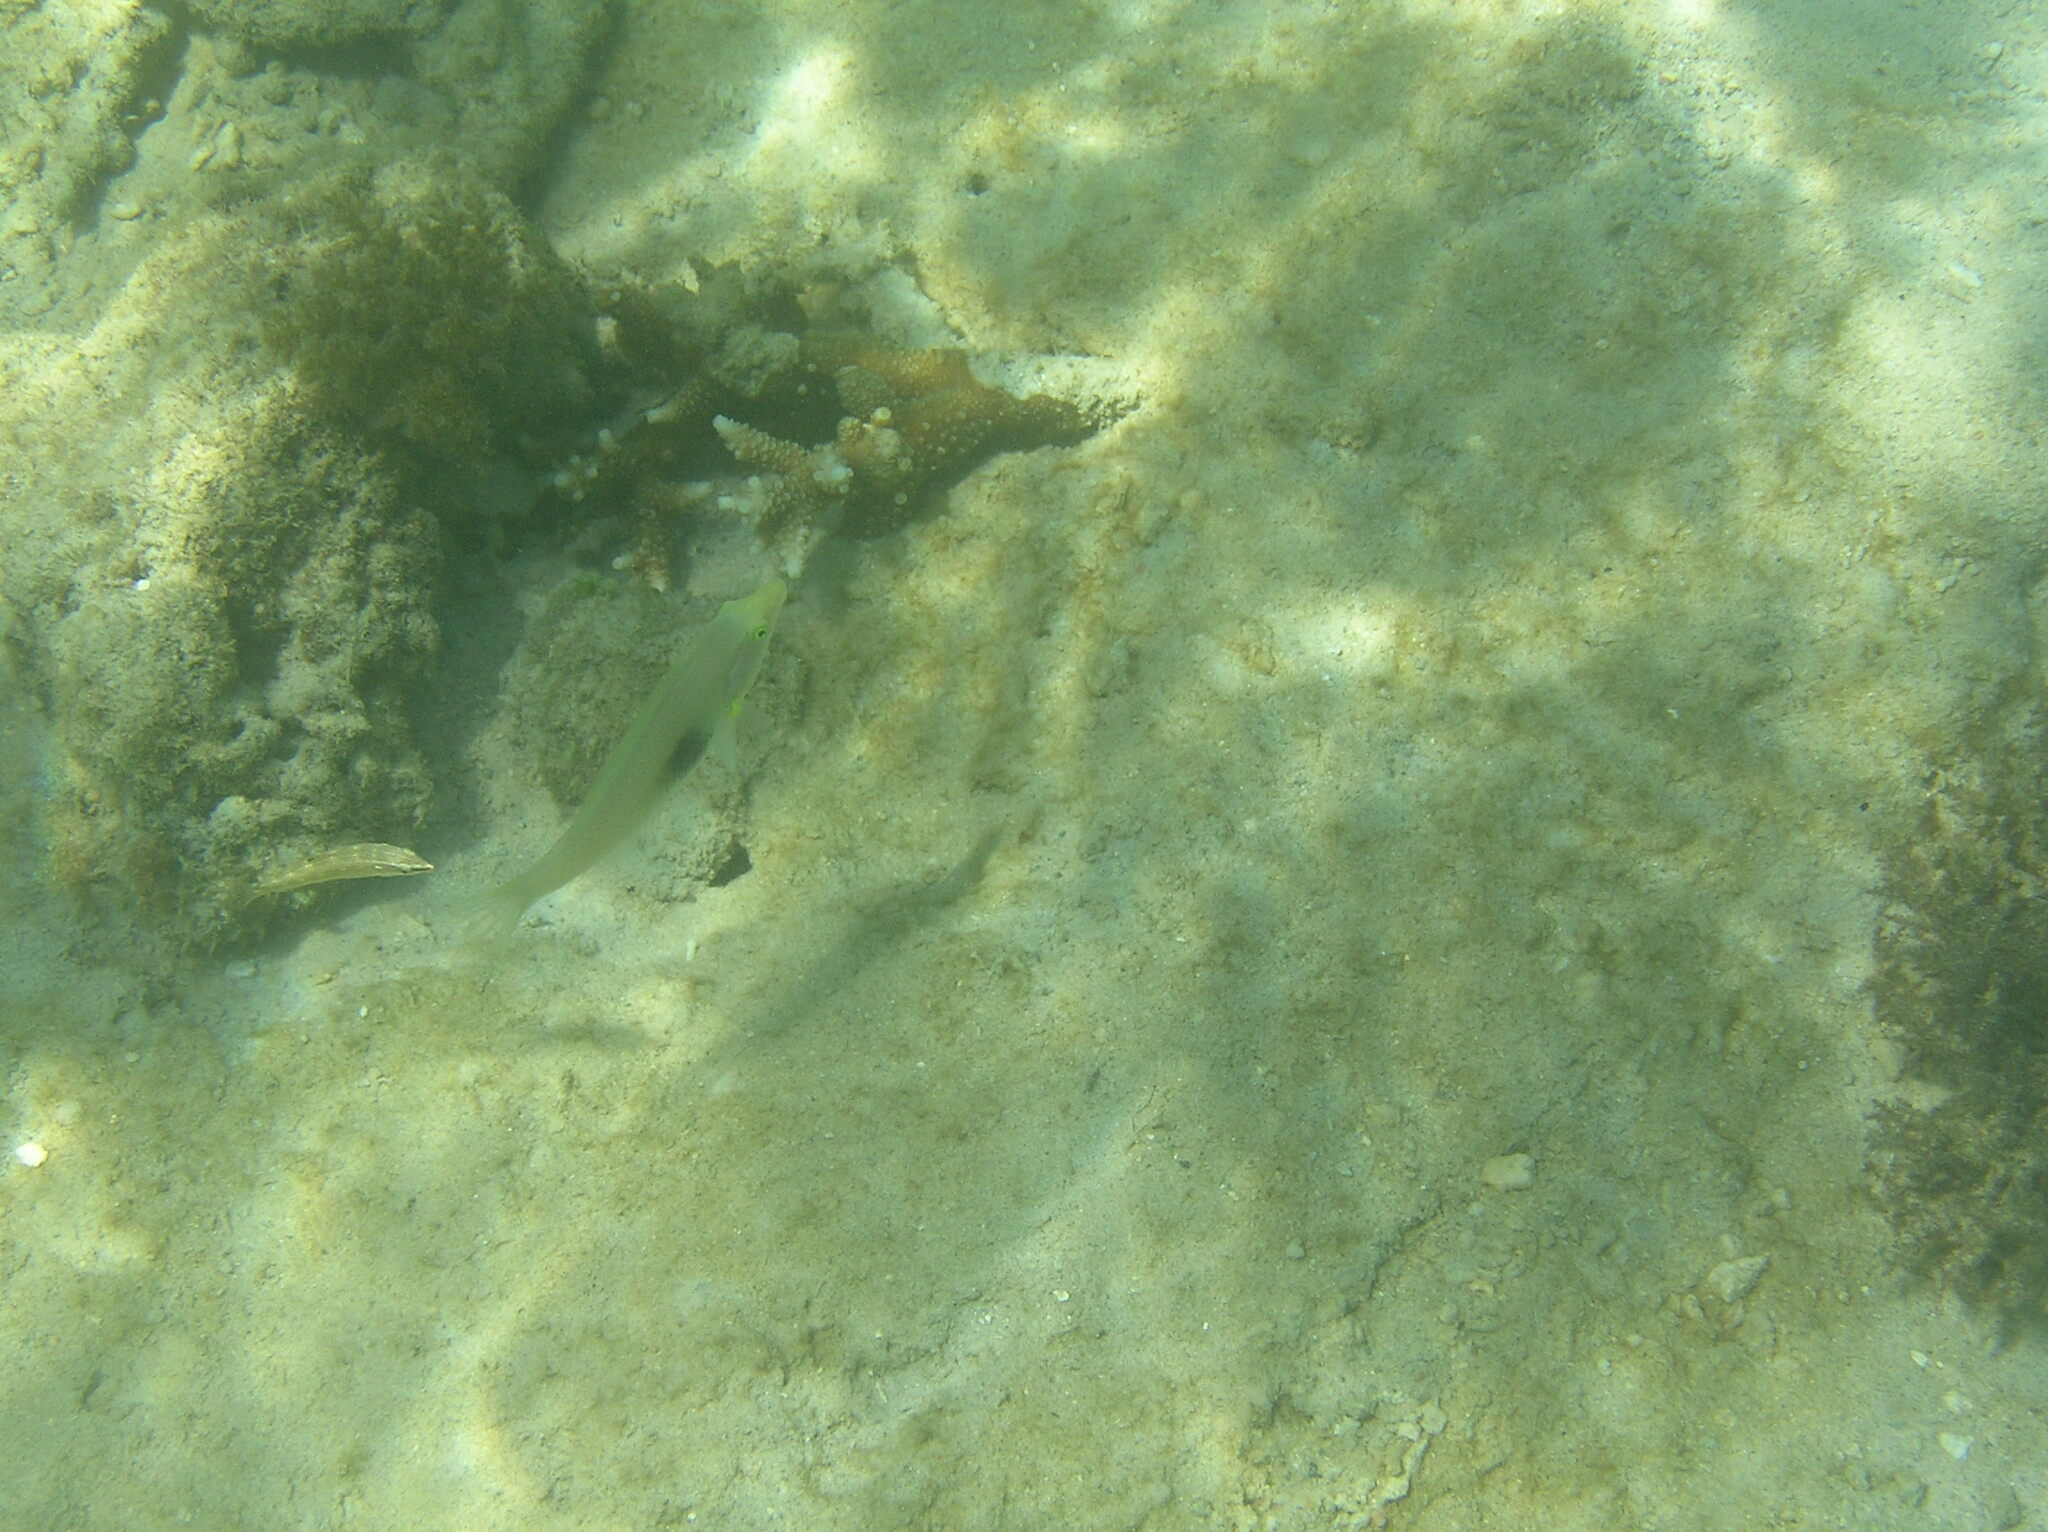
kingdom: Animalia
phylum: Chordata
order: Perciformes
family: Labridae
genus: Halichoeres
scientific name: Halichoeres chloropterus
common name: Pastel-green wrasse
